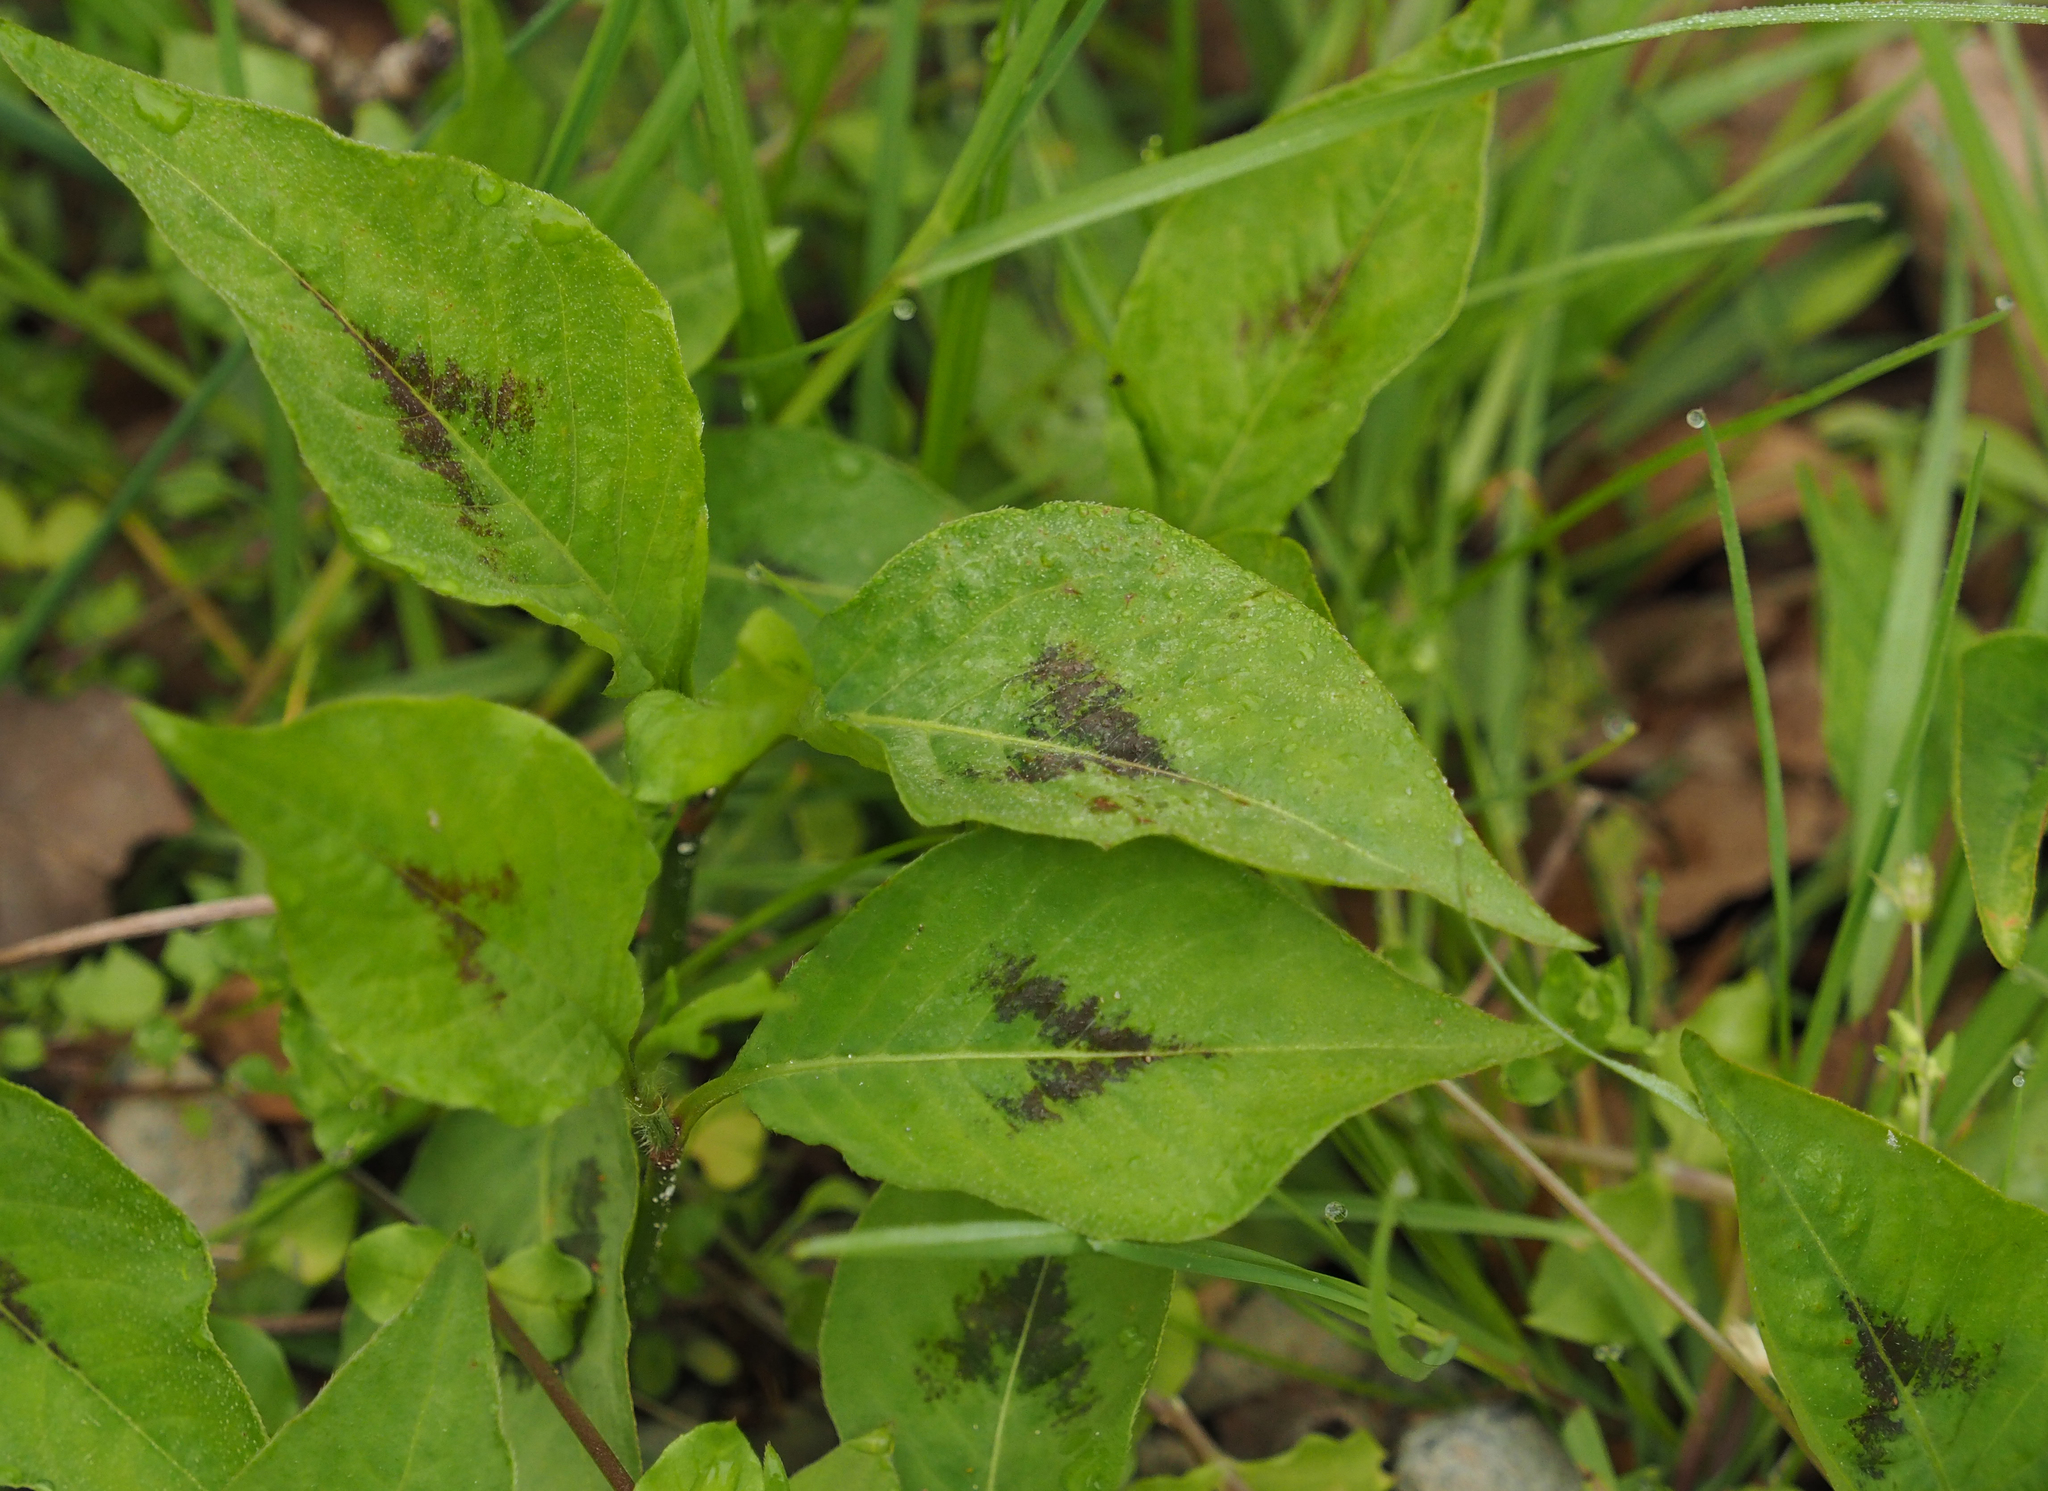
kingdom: Plantae
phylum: Tracheophyta
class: Magnoliopsida
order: Caryophyllales
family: Polygonaceae
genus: Persicaria
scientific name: Persicaria virginiana
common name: Jumpseed
